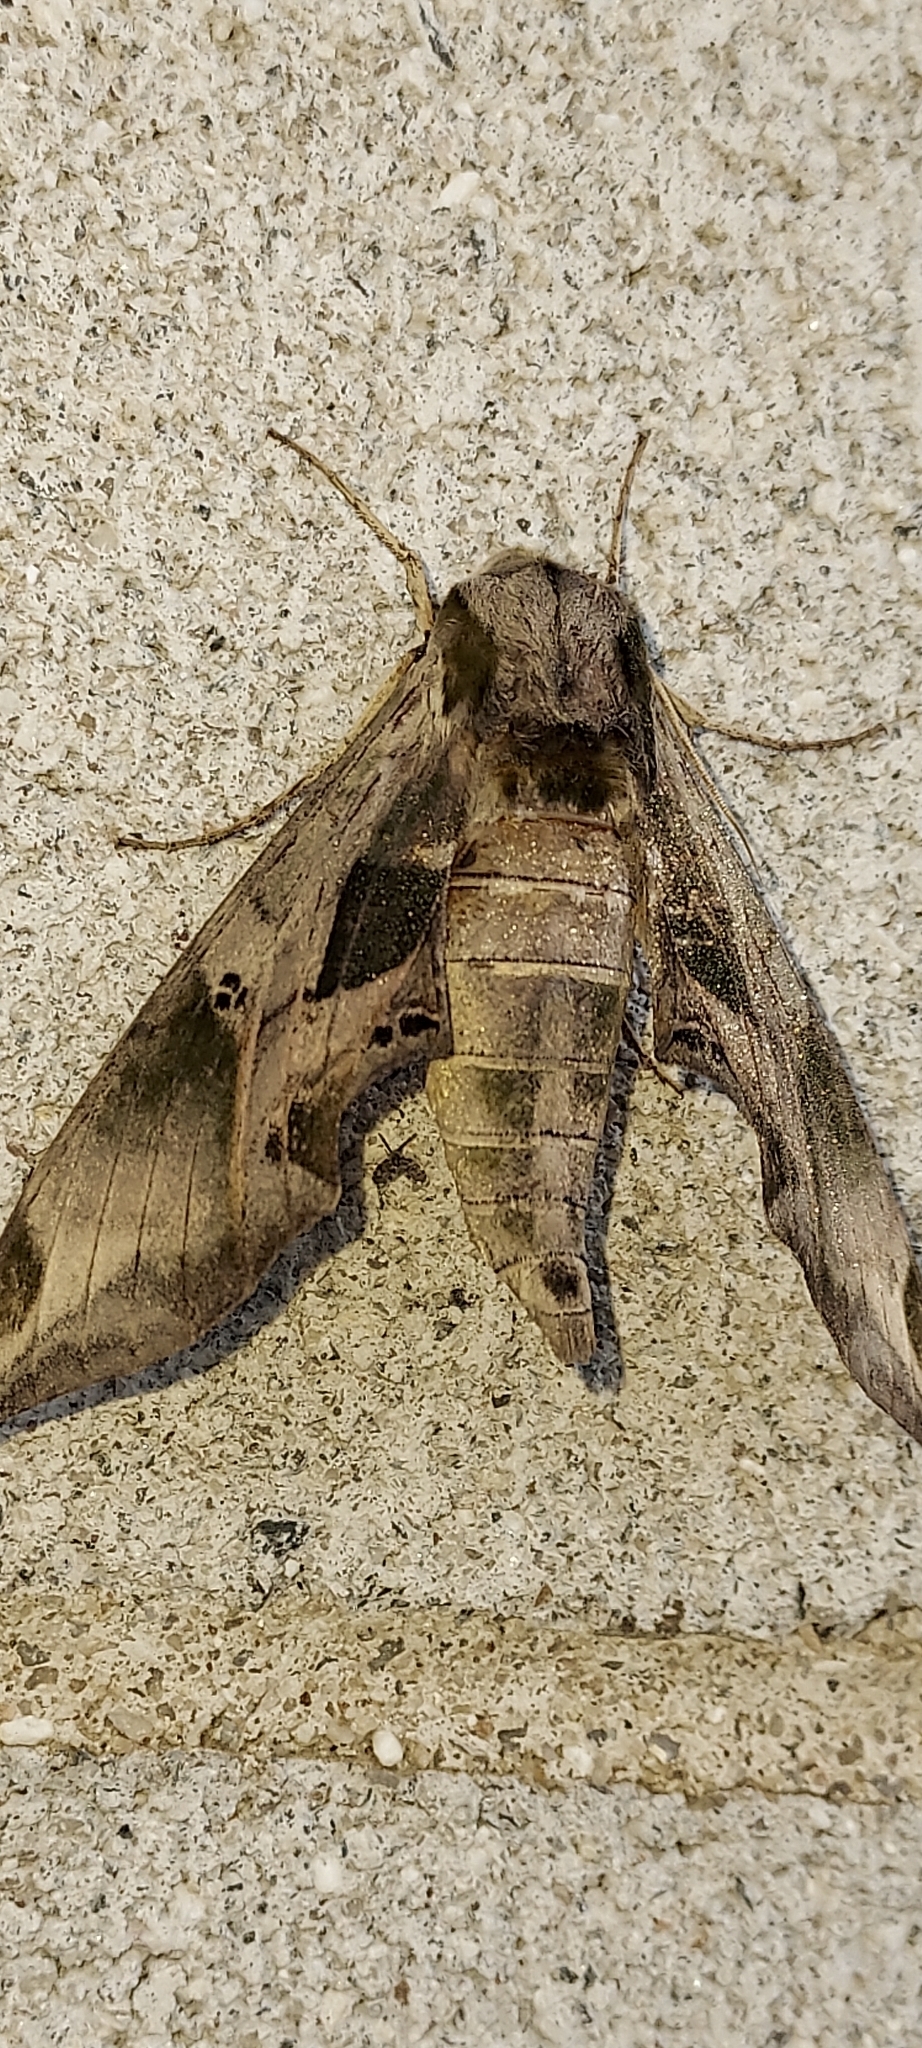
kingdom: Animalia
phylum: Arthropoda
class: Insecta
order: Lepidoptera
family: Sphingidae
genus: Eumorpha
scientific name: Eumorpha pandorus
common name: Pandora sphinx
